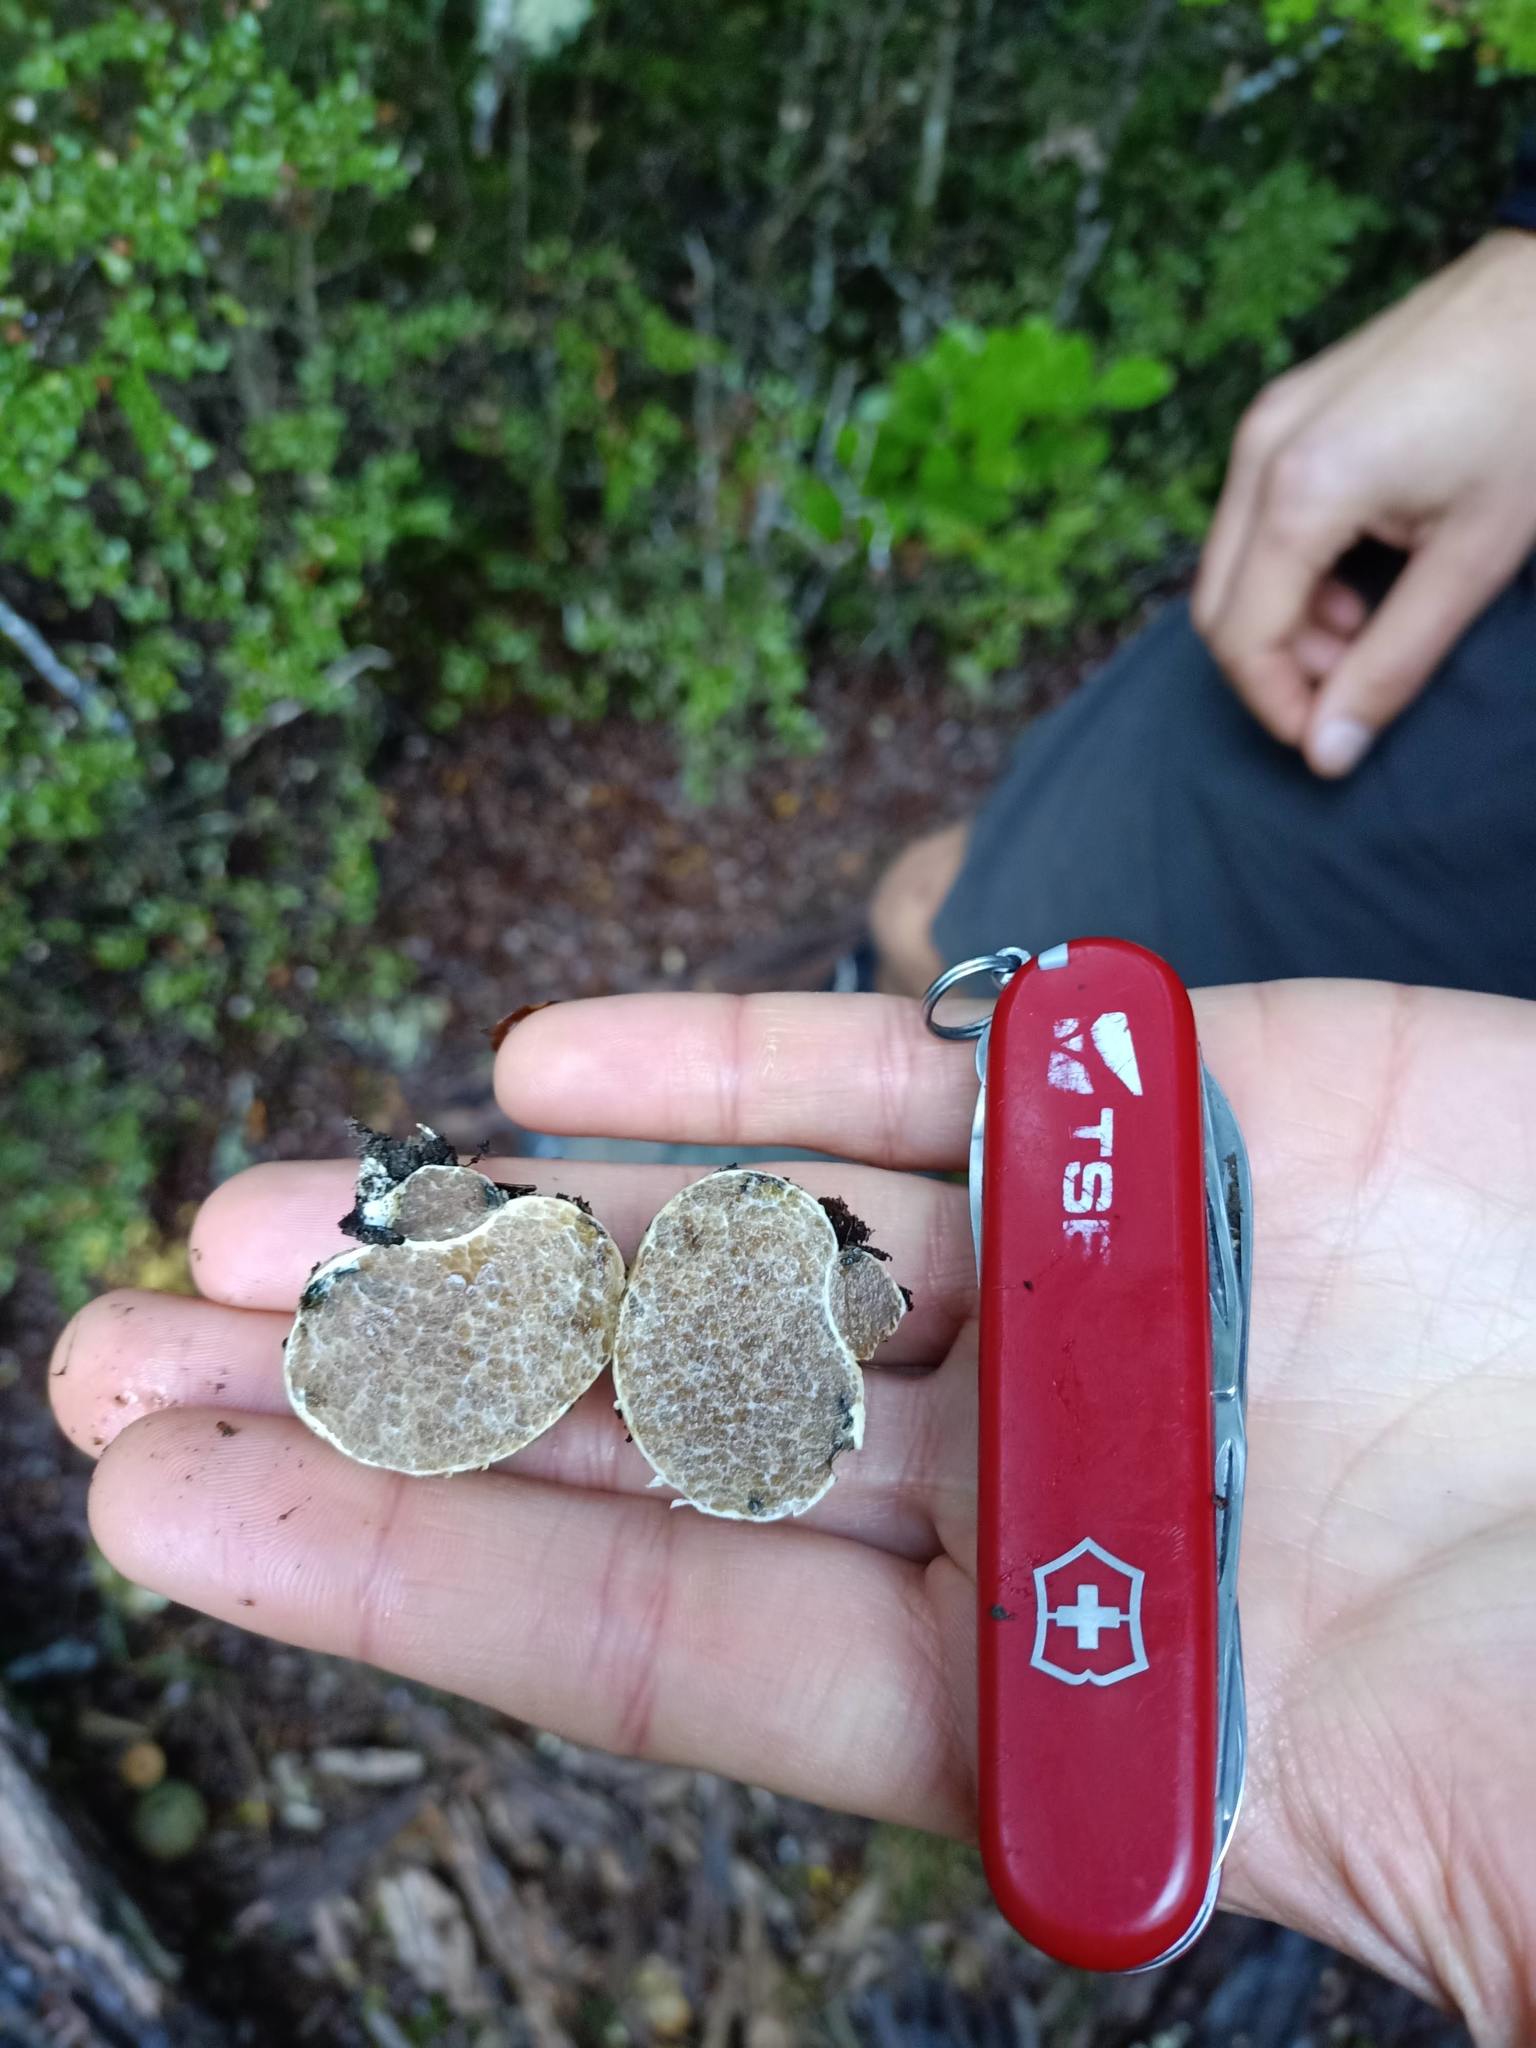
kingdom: Fungi
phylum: Basidiomycota
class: Agaricomycetes
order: Boletales
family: Boletaceae
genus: Octaviania
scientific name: Octaviania tasmanica
